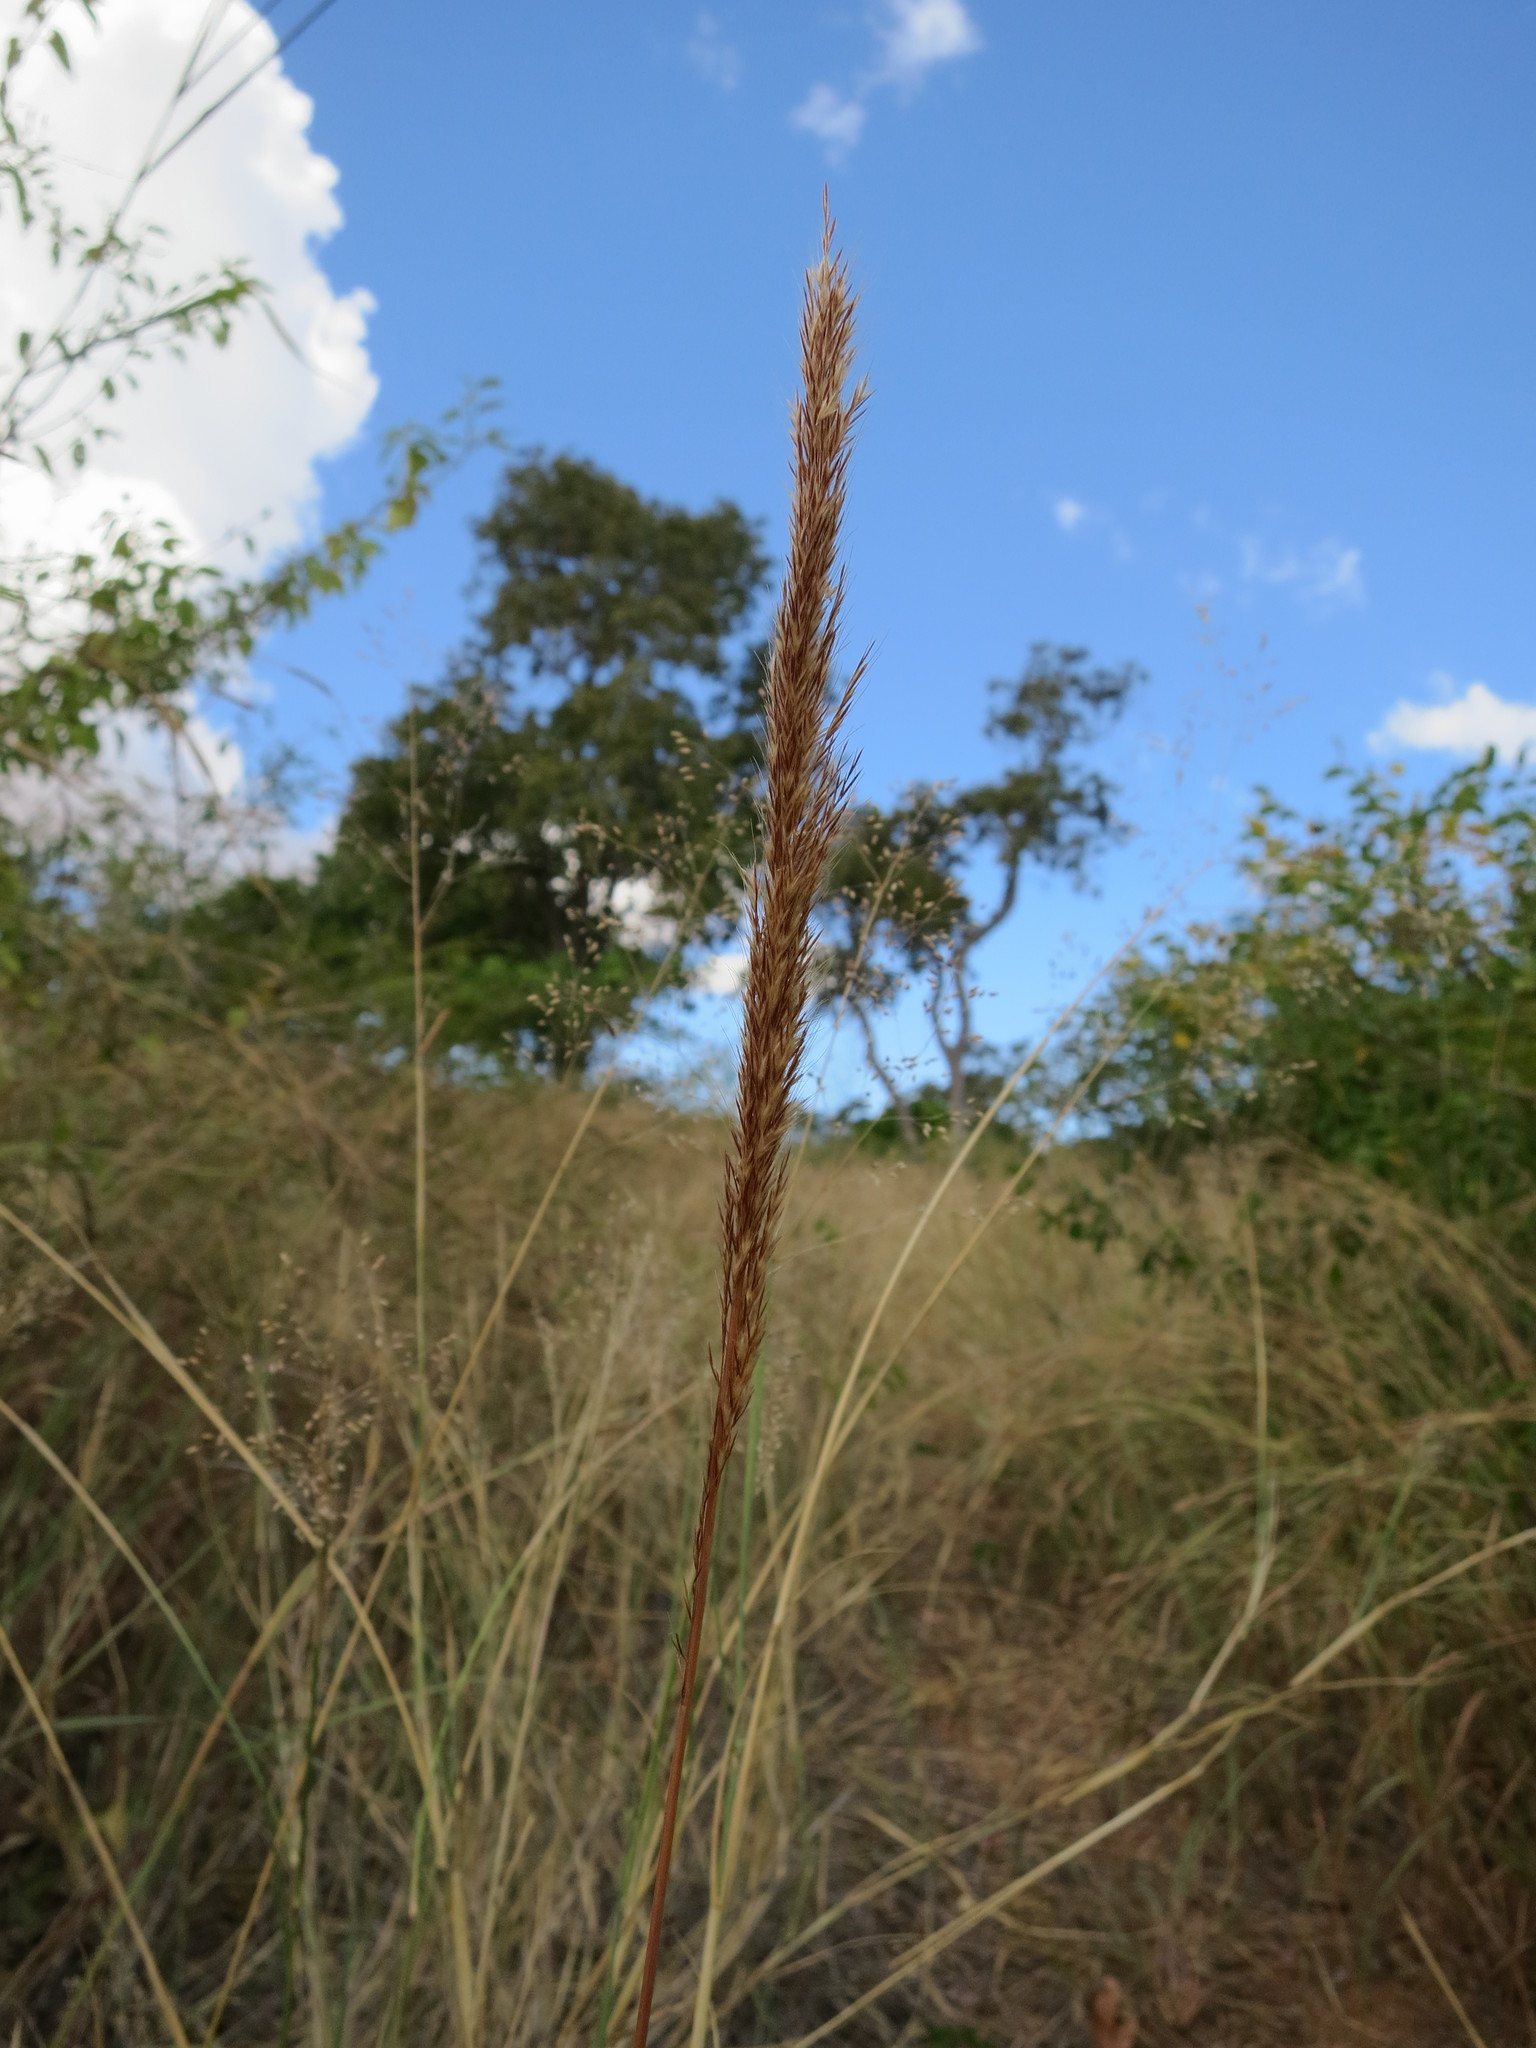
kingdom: Plantae
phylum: Tracheophyta
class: Liliopsida
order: Poales
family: Poaceae
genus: Leptocarydion
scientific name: Leptocarydion vulpiastrum
